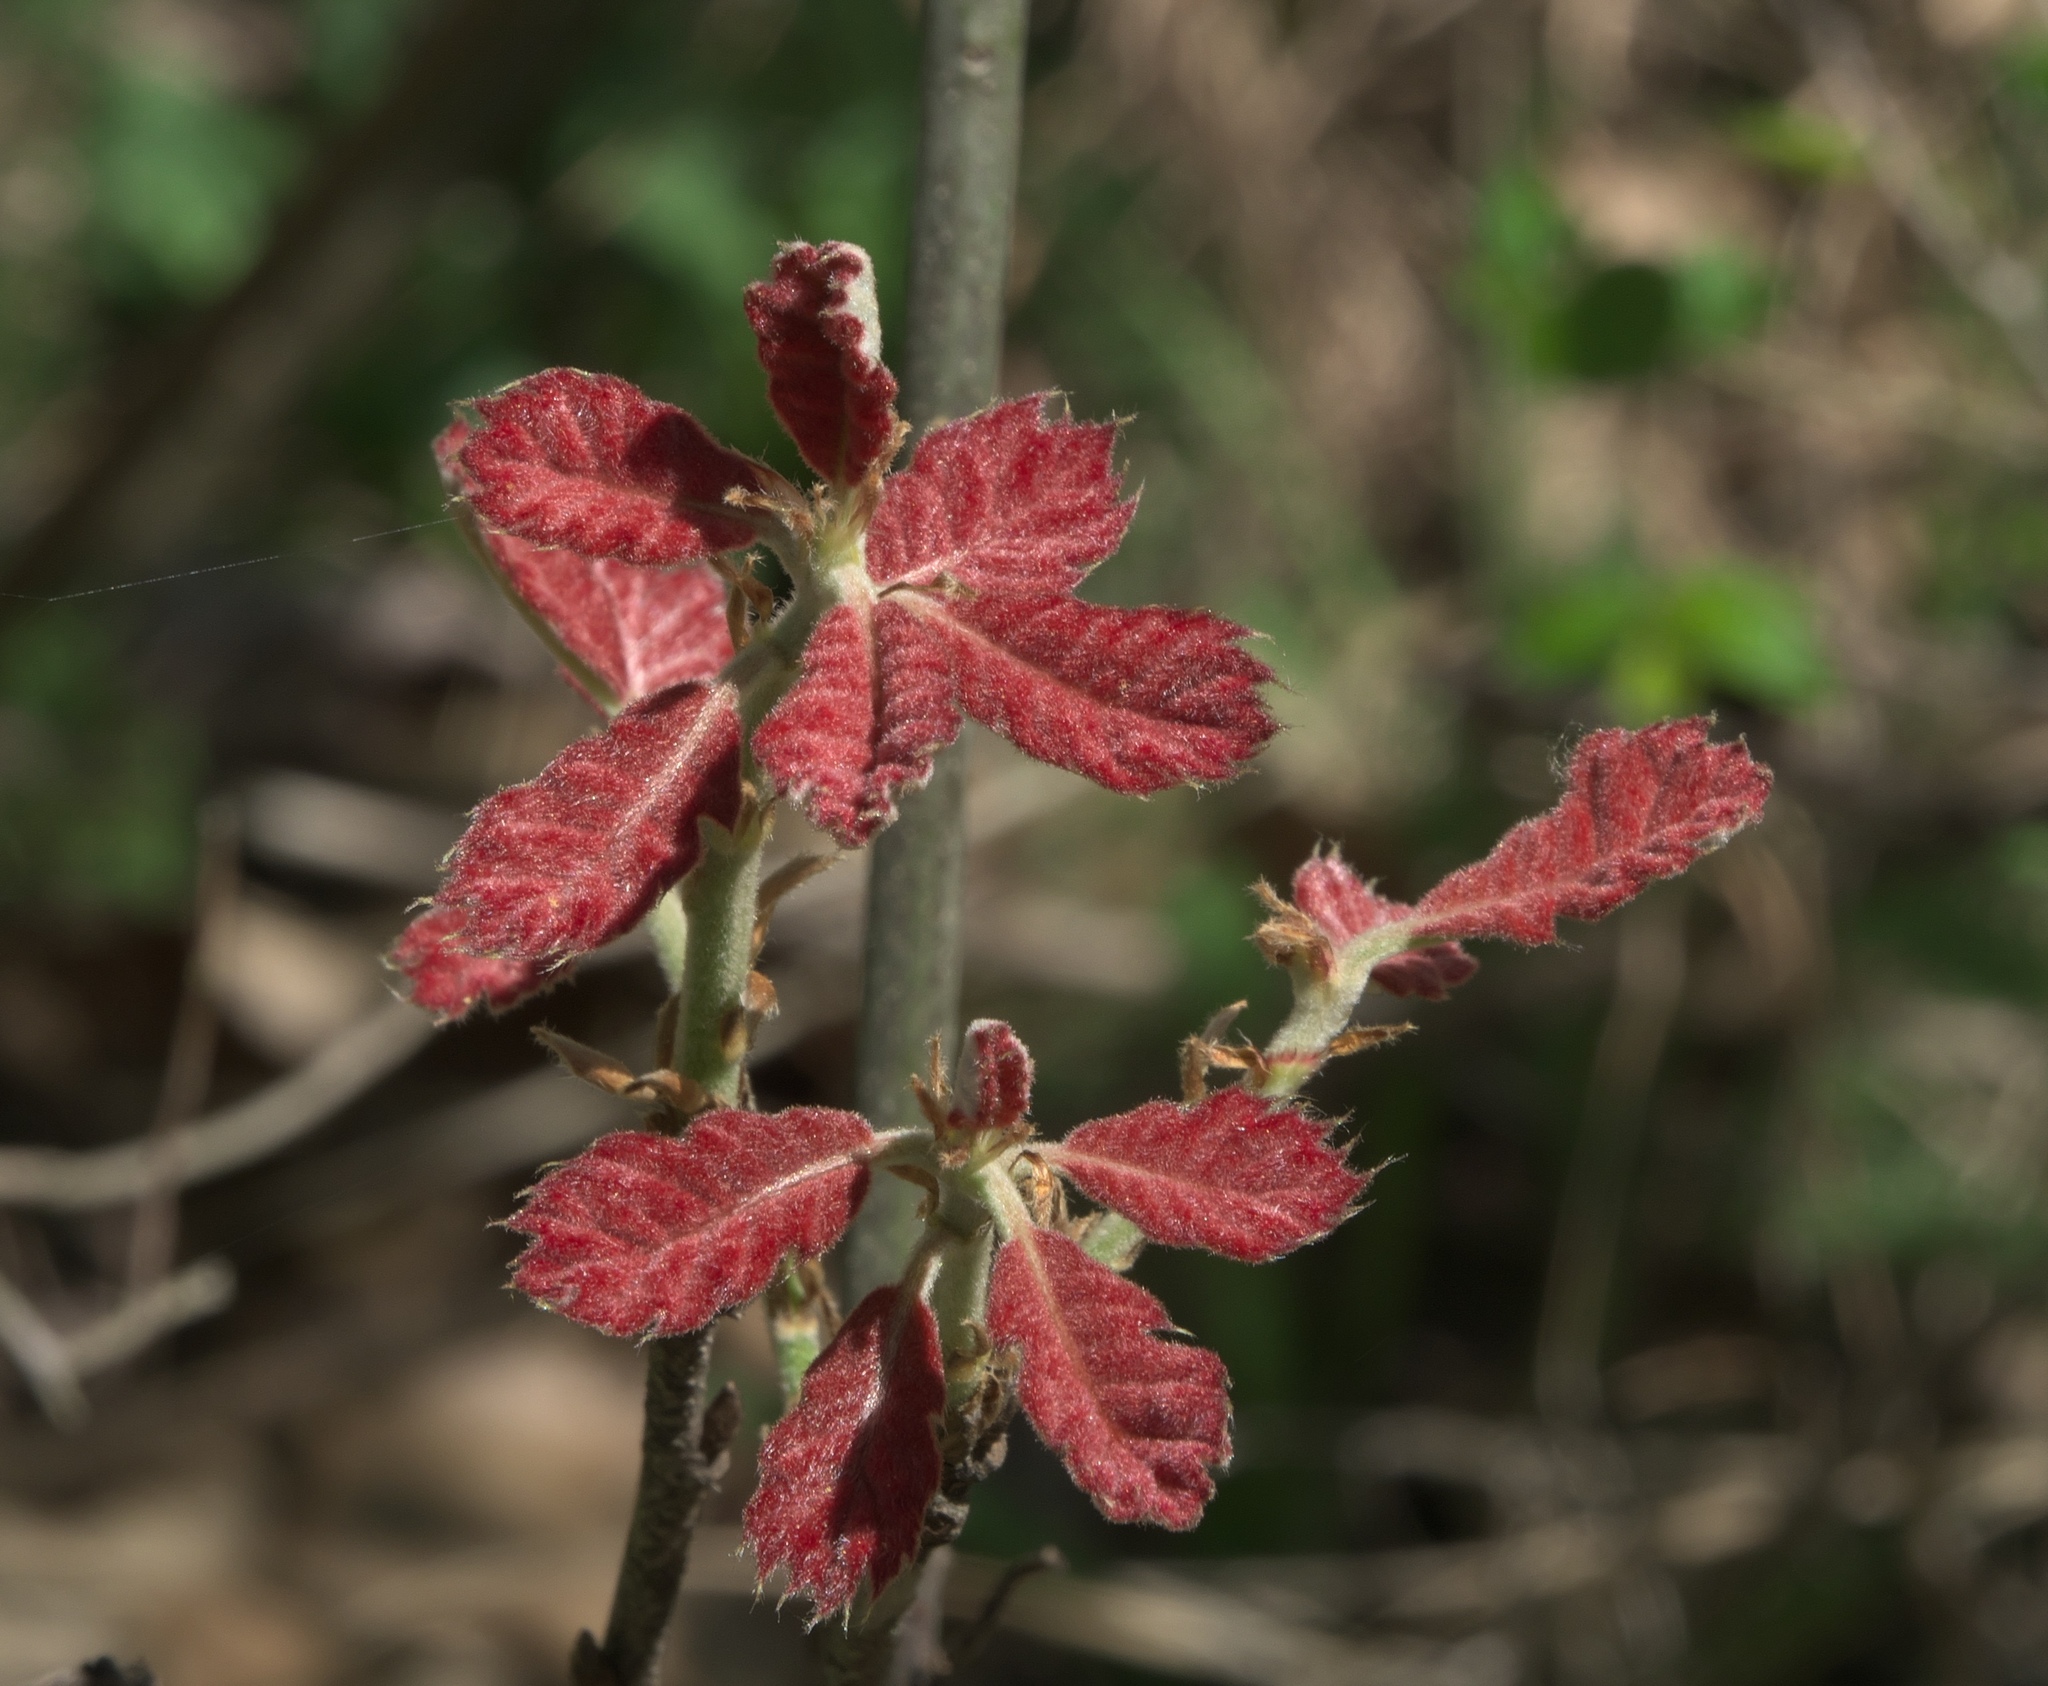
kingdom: Plantae
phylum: Tracheophyta
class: Magnoliopsida
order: Fagales
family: Fagaceae
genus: Quercus
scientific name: Quercus muehlenbergii
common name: Chinkapin oak
